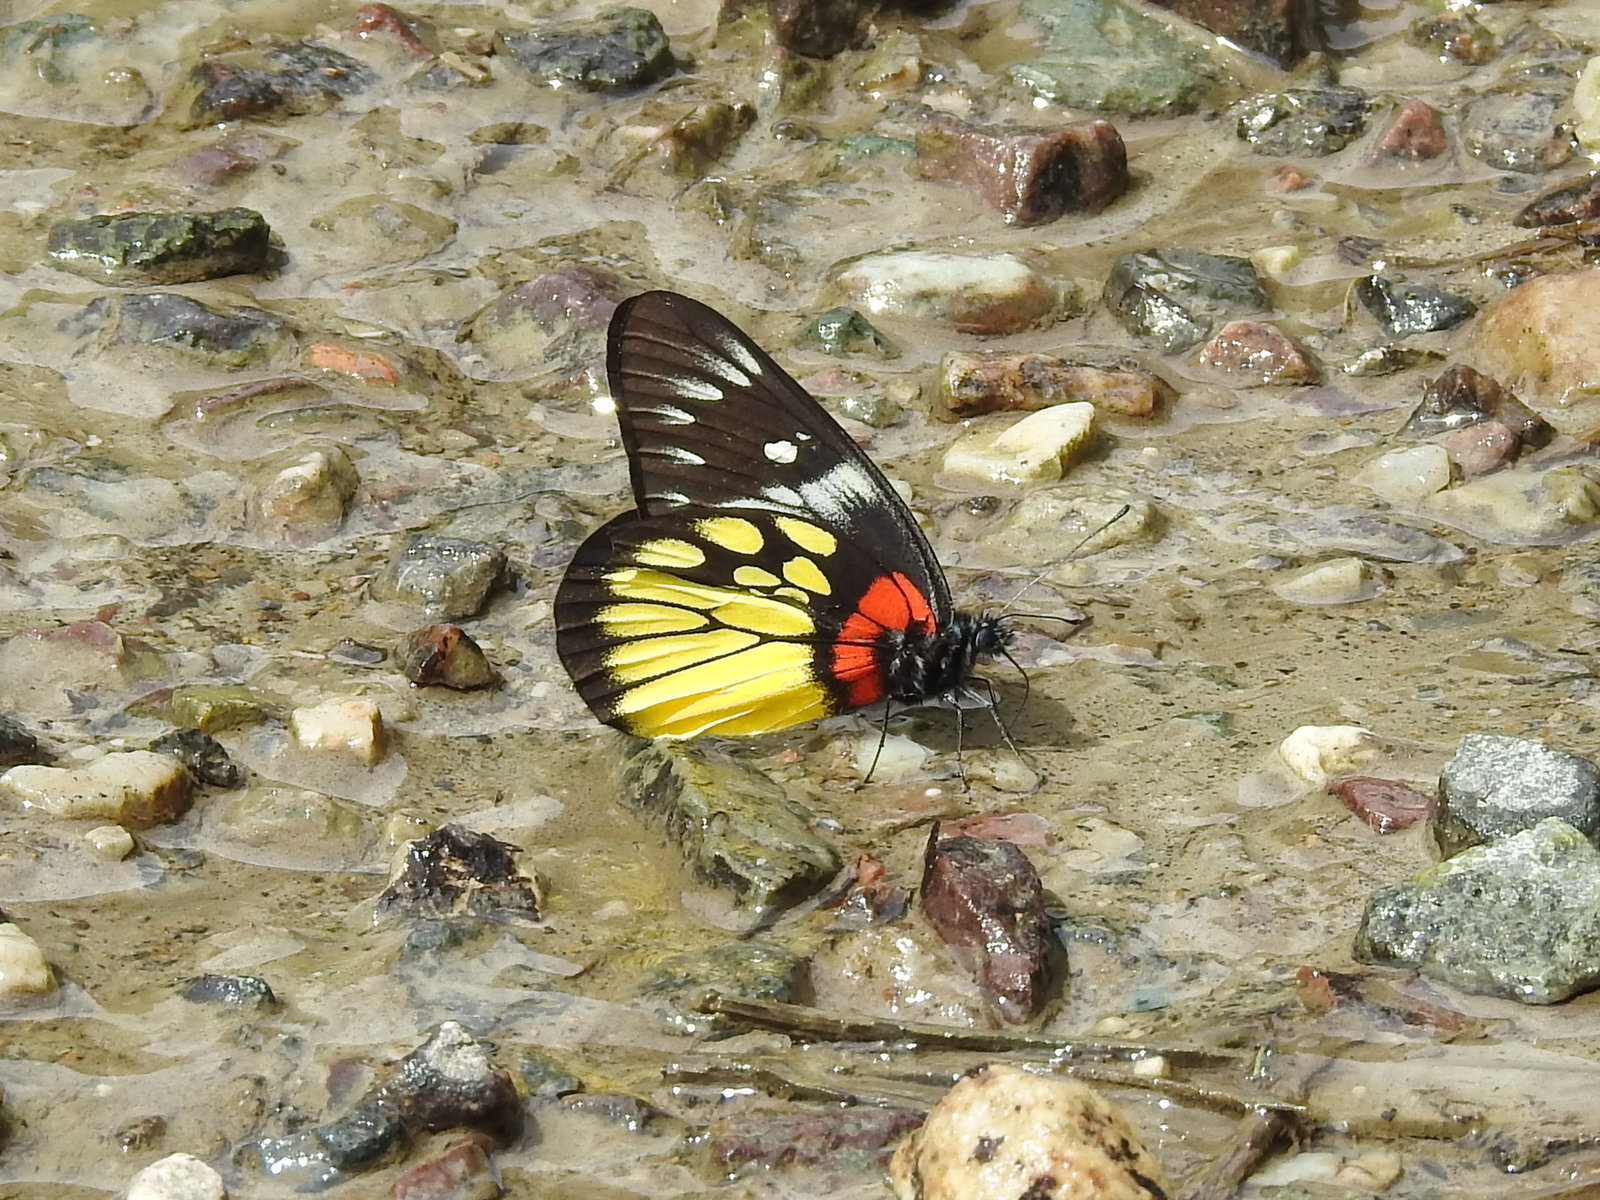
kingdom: Animalia
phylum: Arthropoda
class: Insecta
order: Lepidoptera
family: Pieridae
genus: Delias
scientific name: Delias pasithoe
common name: Red-base jezebel
